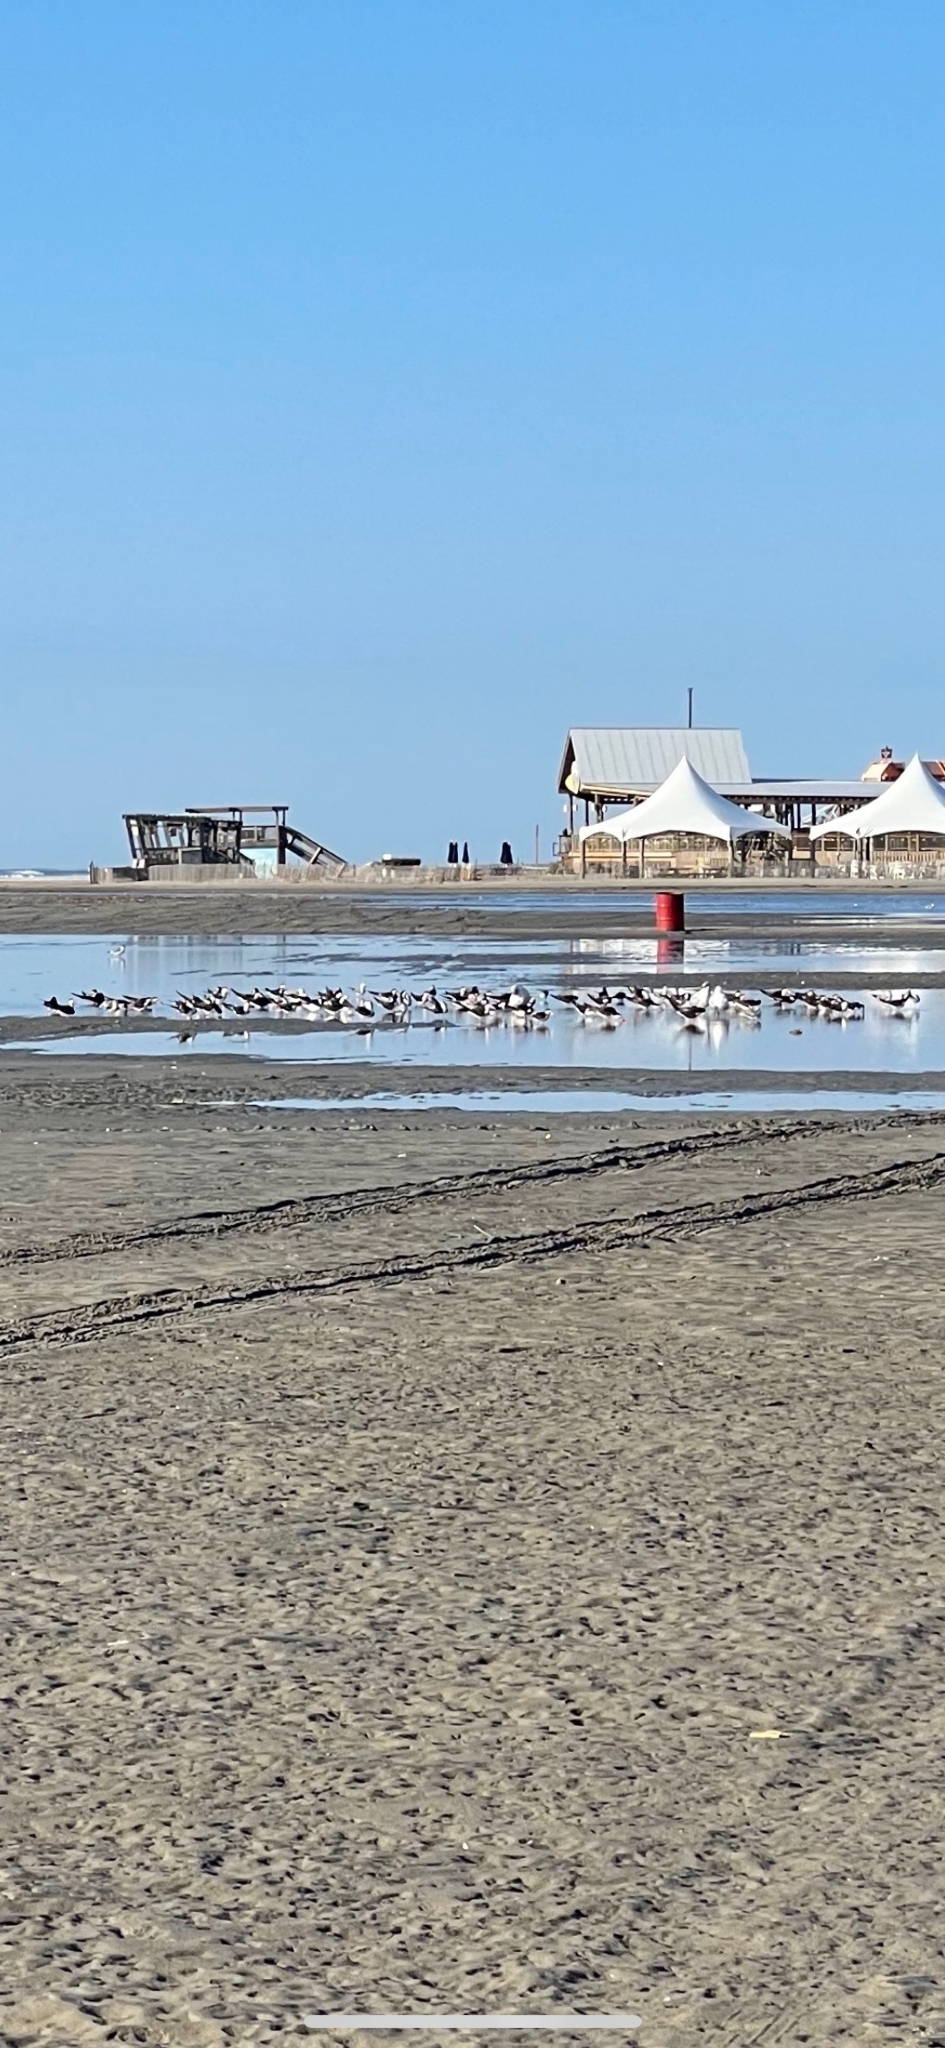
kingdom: Animalia
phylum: Chordata
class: Aves
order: Charadriiformes
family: Laridae
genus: Rynchops
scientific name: Rynchops niger
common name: Black skimmer
